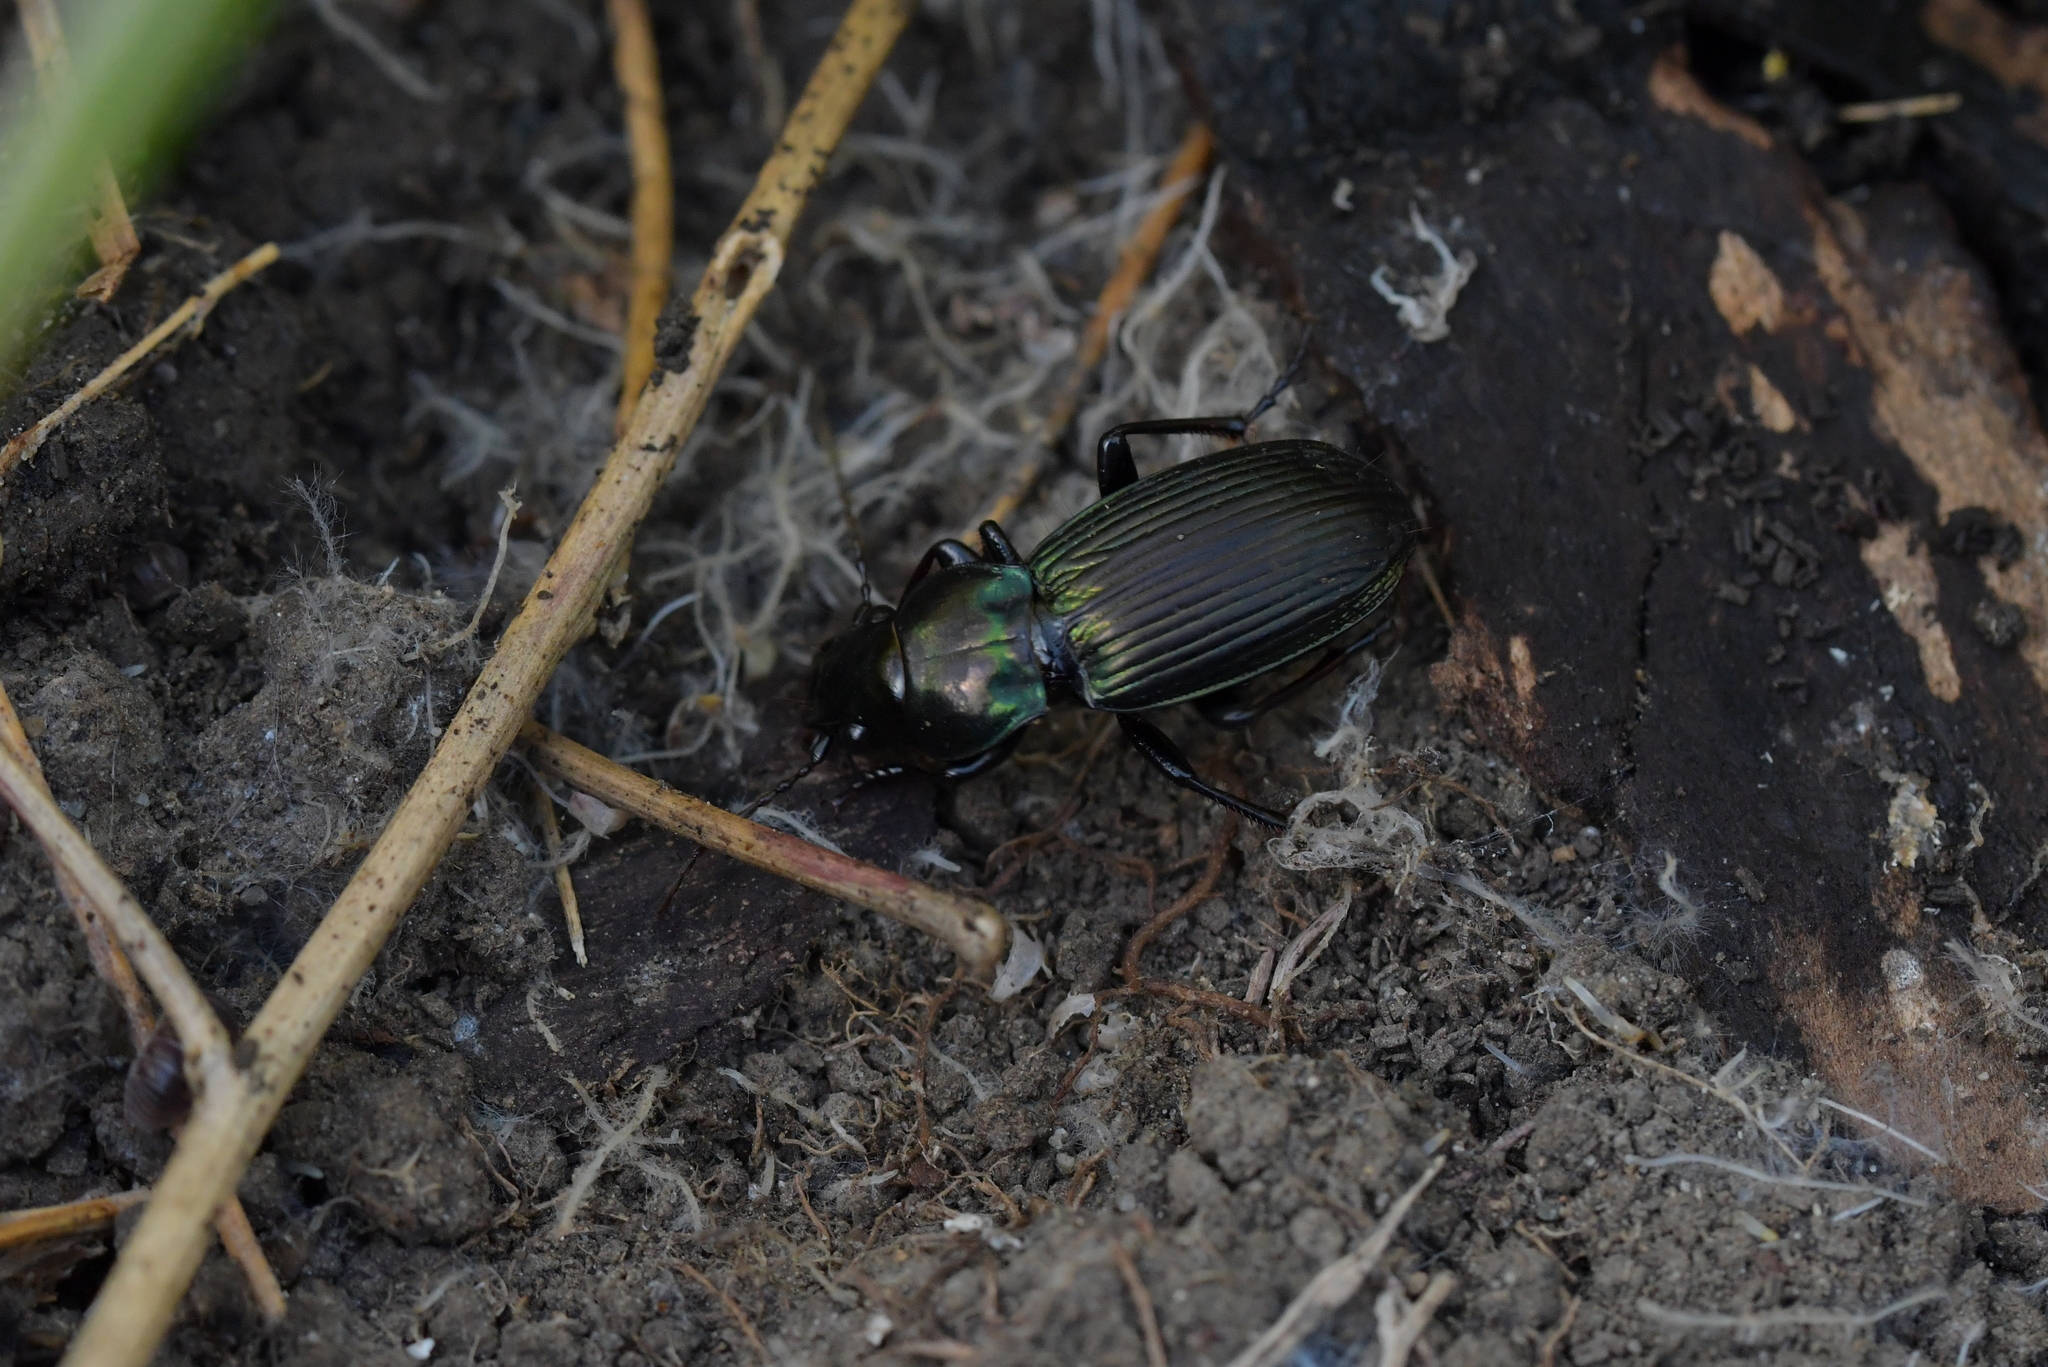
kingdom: Animalia
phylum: Arthropoda
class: Insecta
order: Coleoptera
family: Carabidae
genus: Megadromus
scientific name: Megadromus capito
